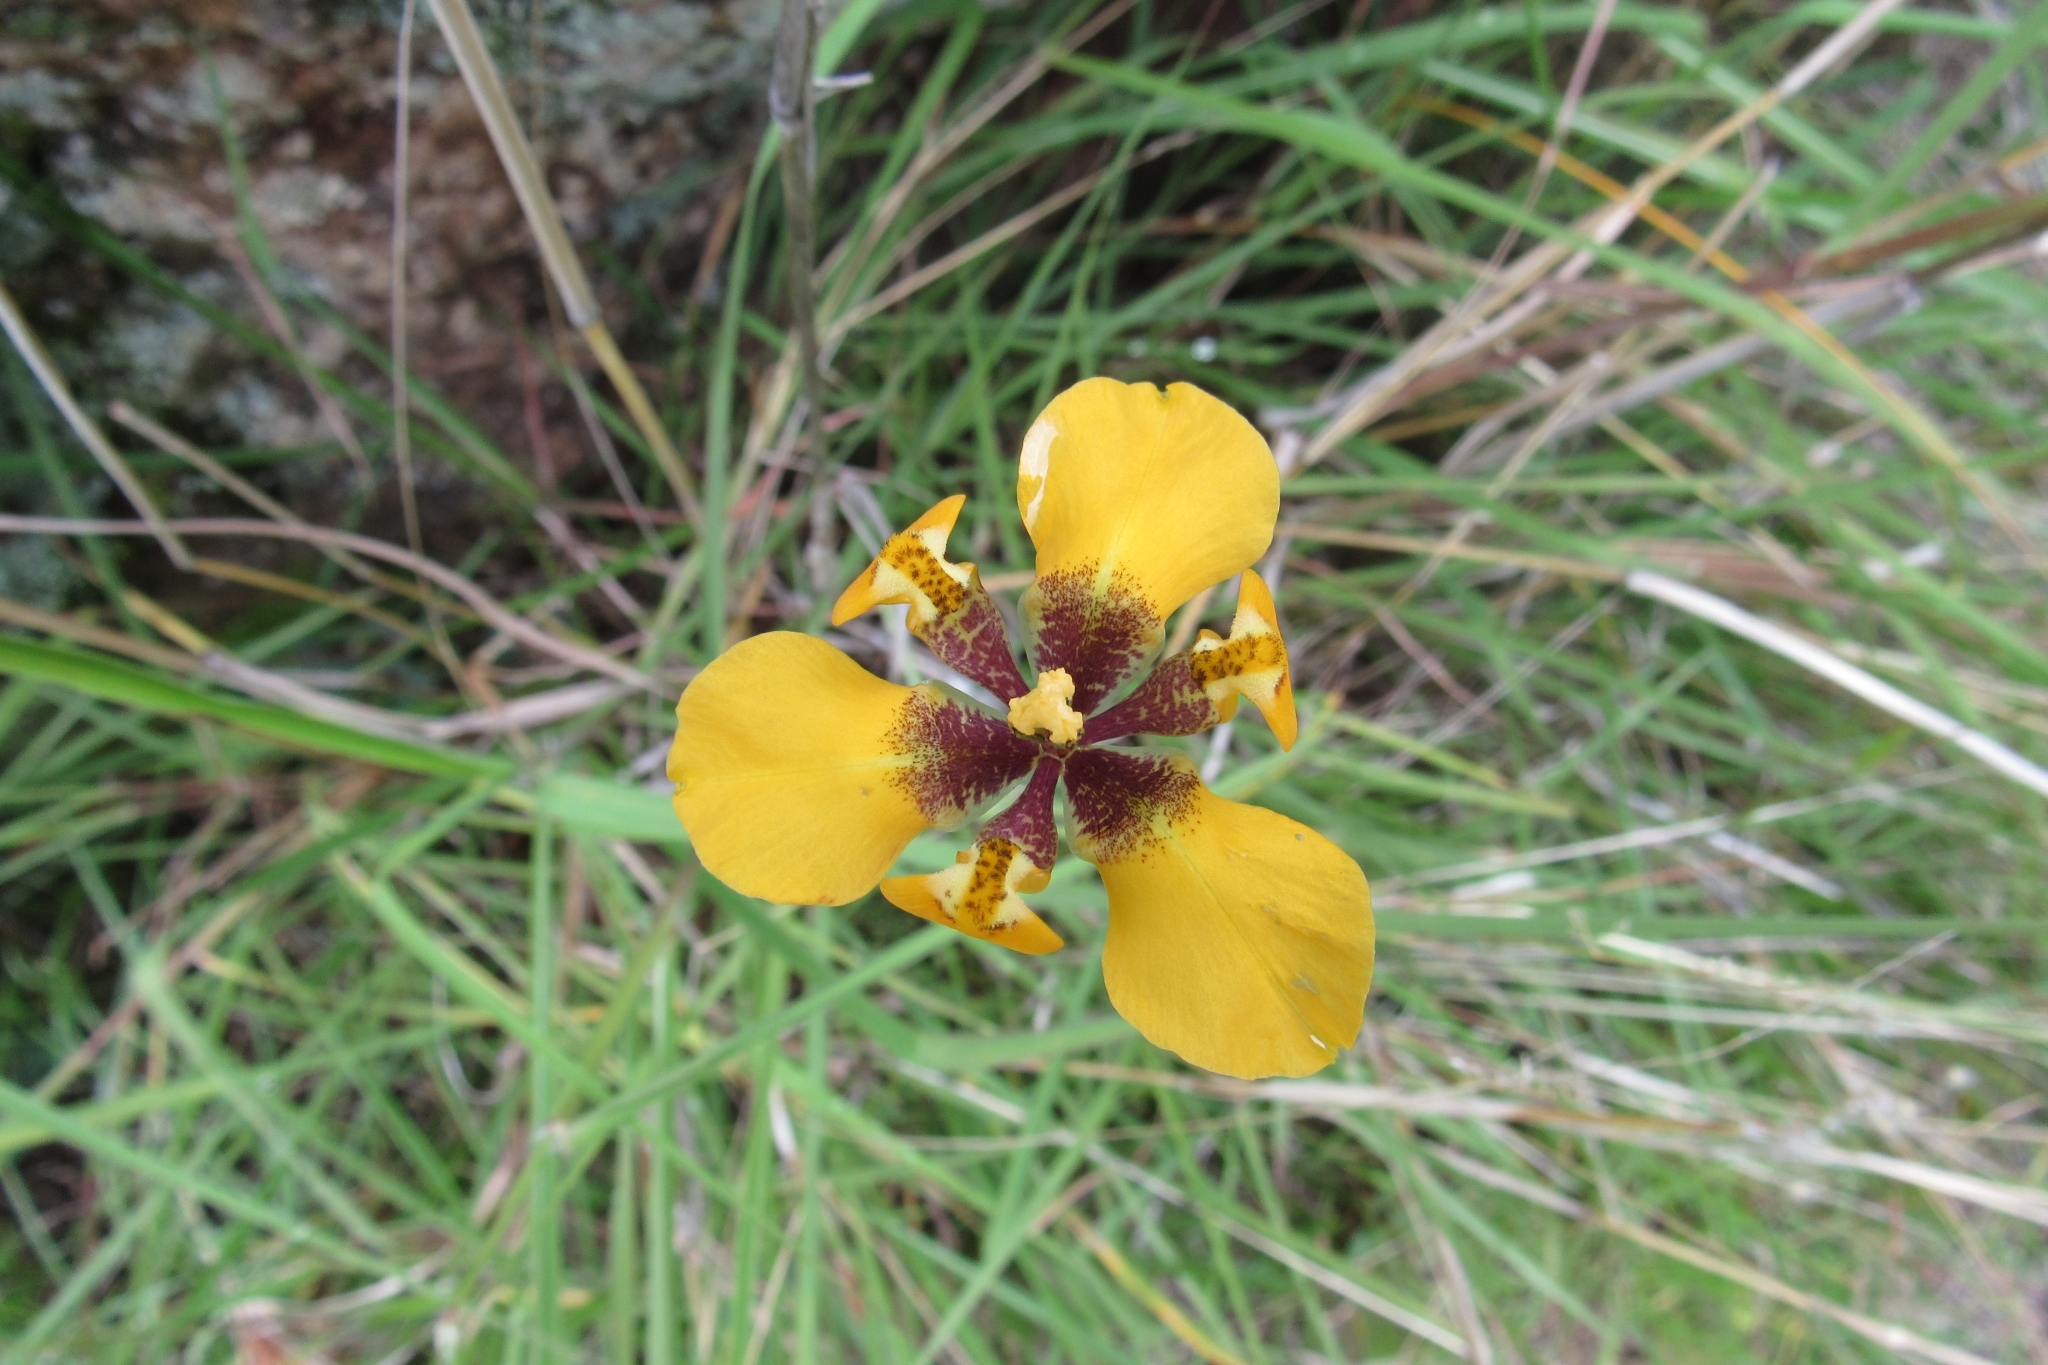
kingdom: Plantae
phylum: Tracheophyta
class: Liliopsida
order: Asparagales
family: Iridaceae
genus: Hesperoxiphion
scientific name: Hesperoxiphion peruvianum
